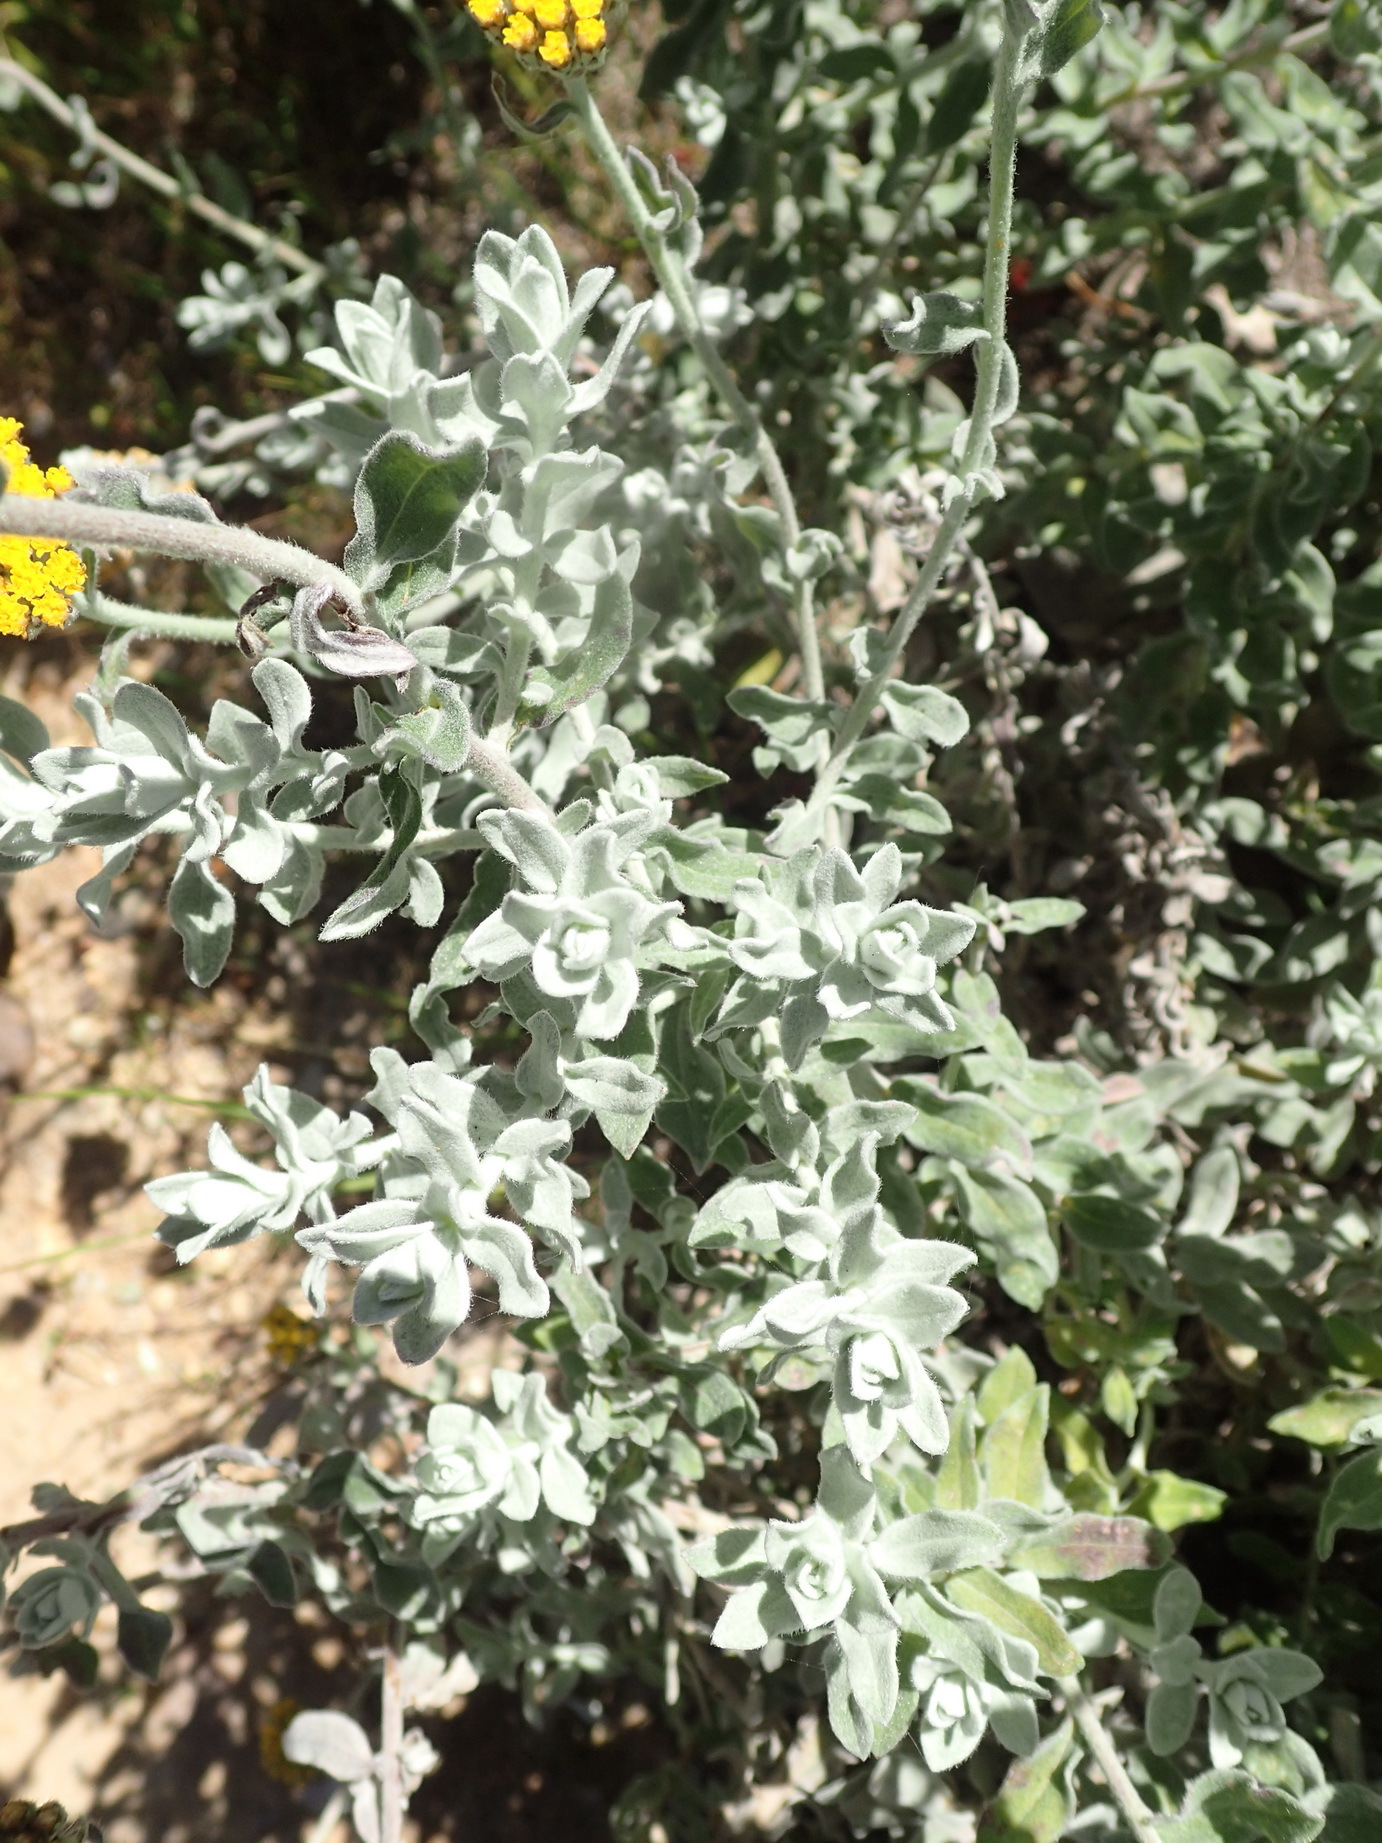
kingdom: Plantae
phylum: Tracheophyta
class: Magnoliopsida
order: Asterales
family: Asteraceae
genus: Helichrysum
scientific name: Helichrysum dasyanthum
